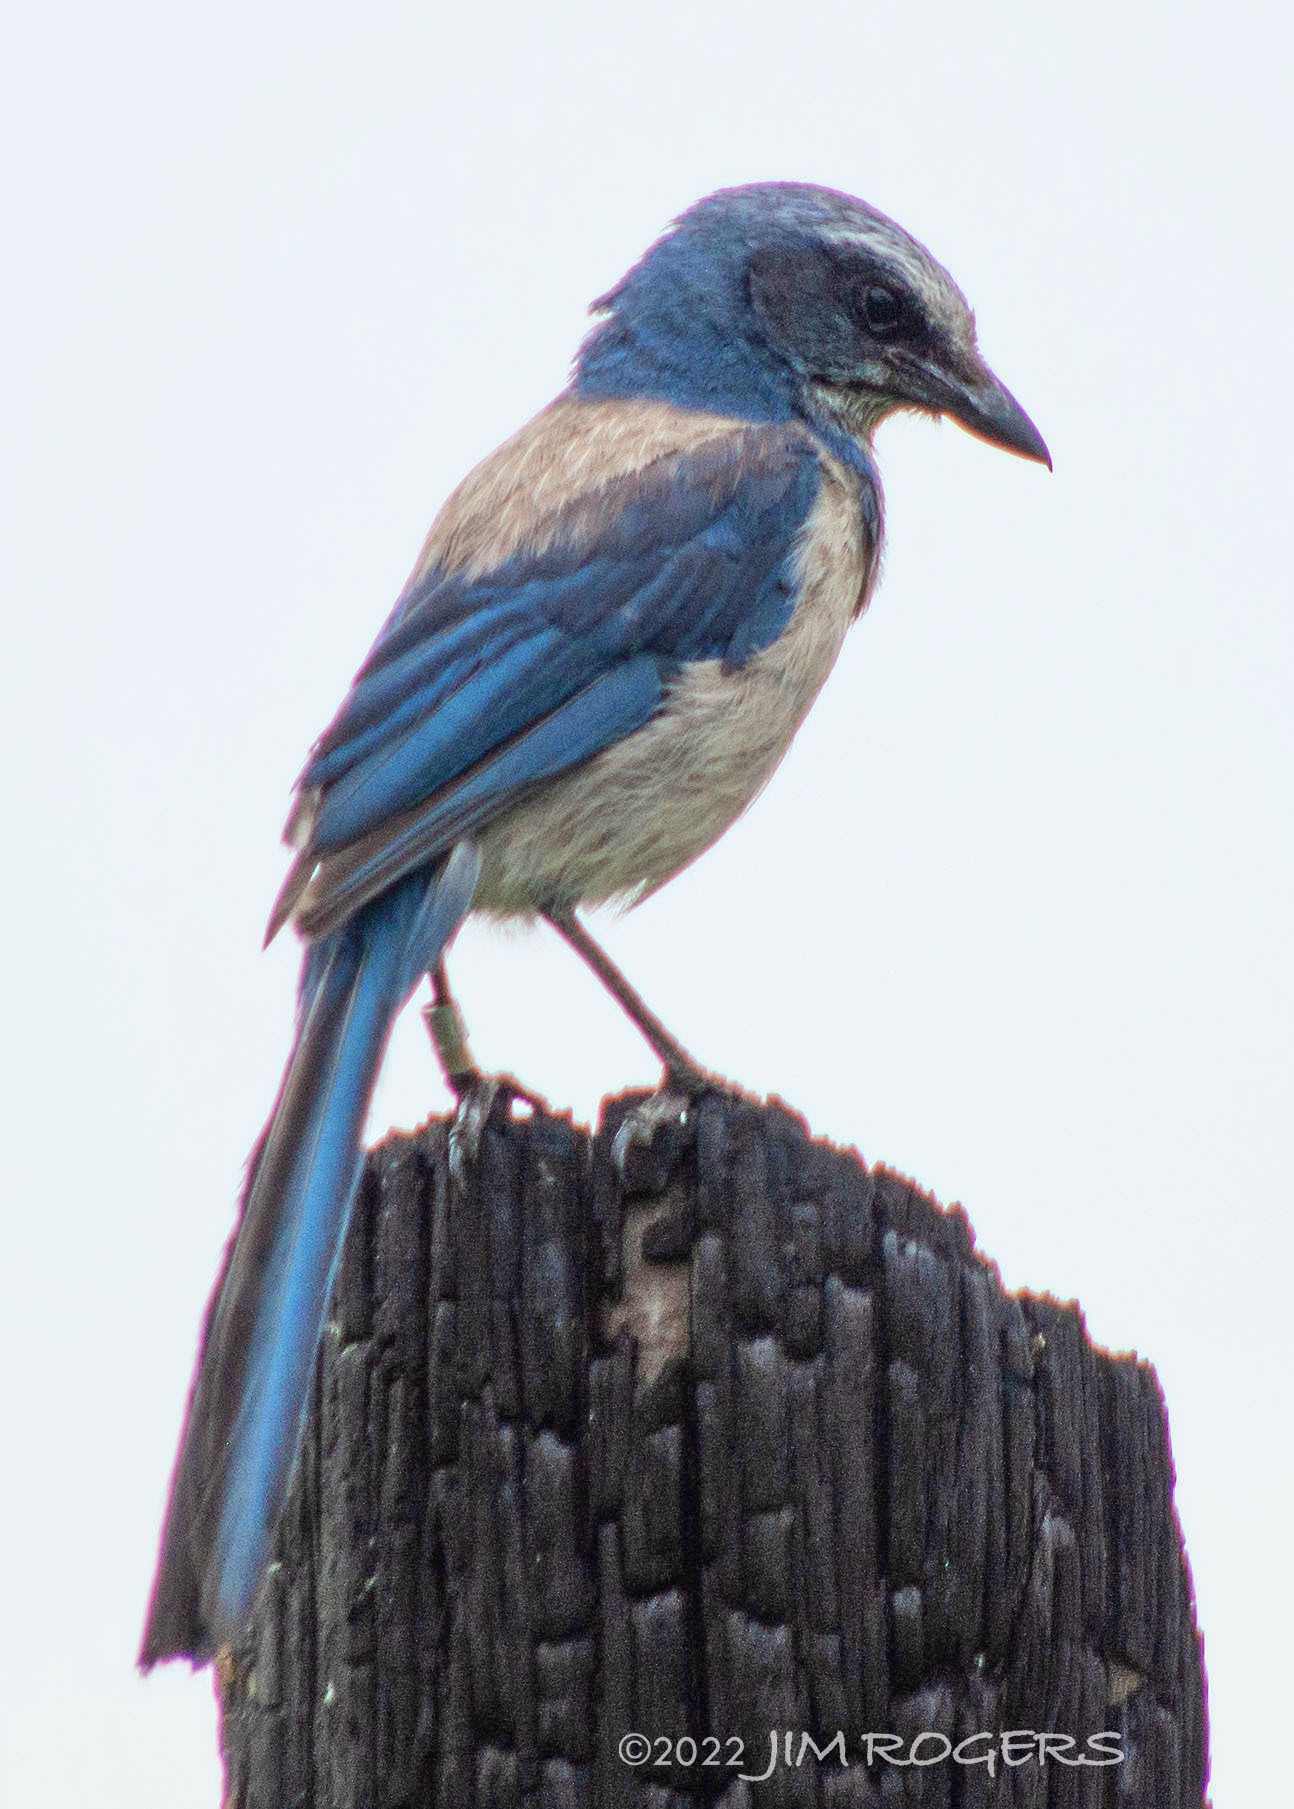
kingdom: Animalia
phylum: Chordata
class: Aves
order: Passeriformes
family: Corvidae
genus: Aphelocoma
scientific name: Aphelocoma coerulescens
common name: Florida scrub jay
